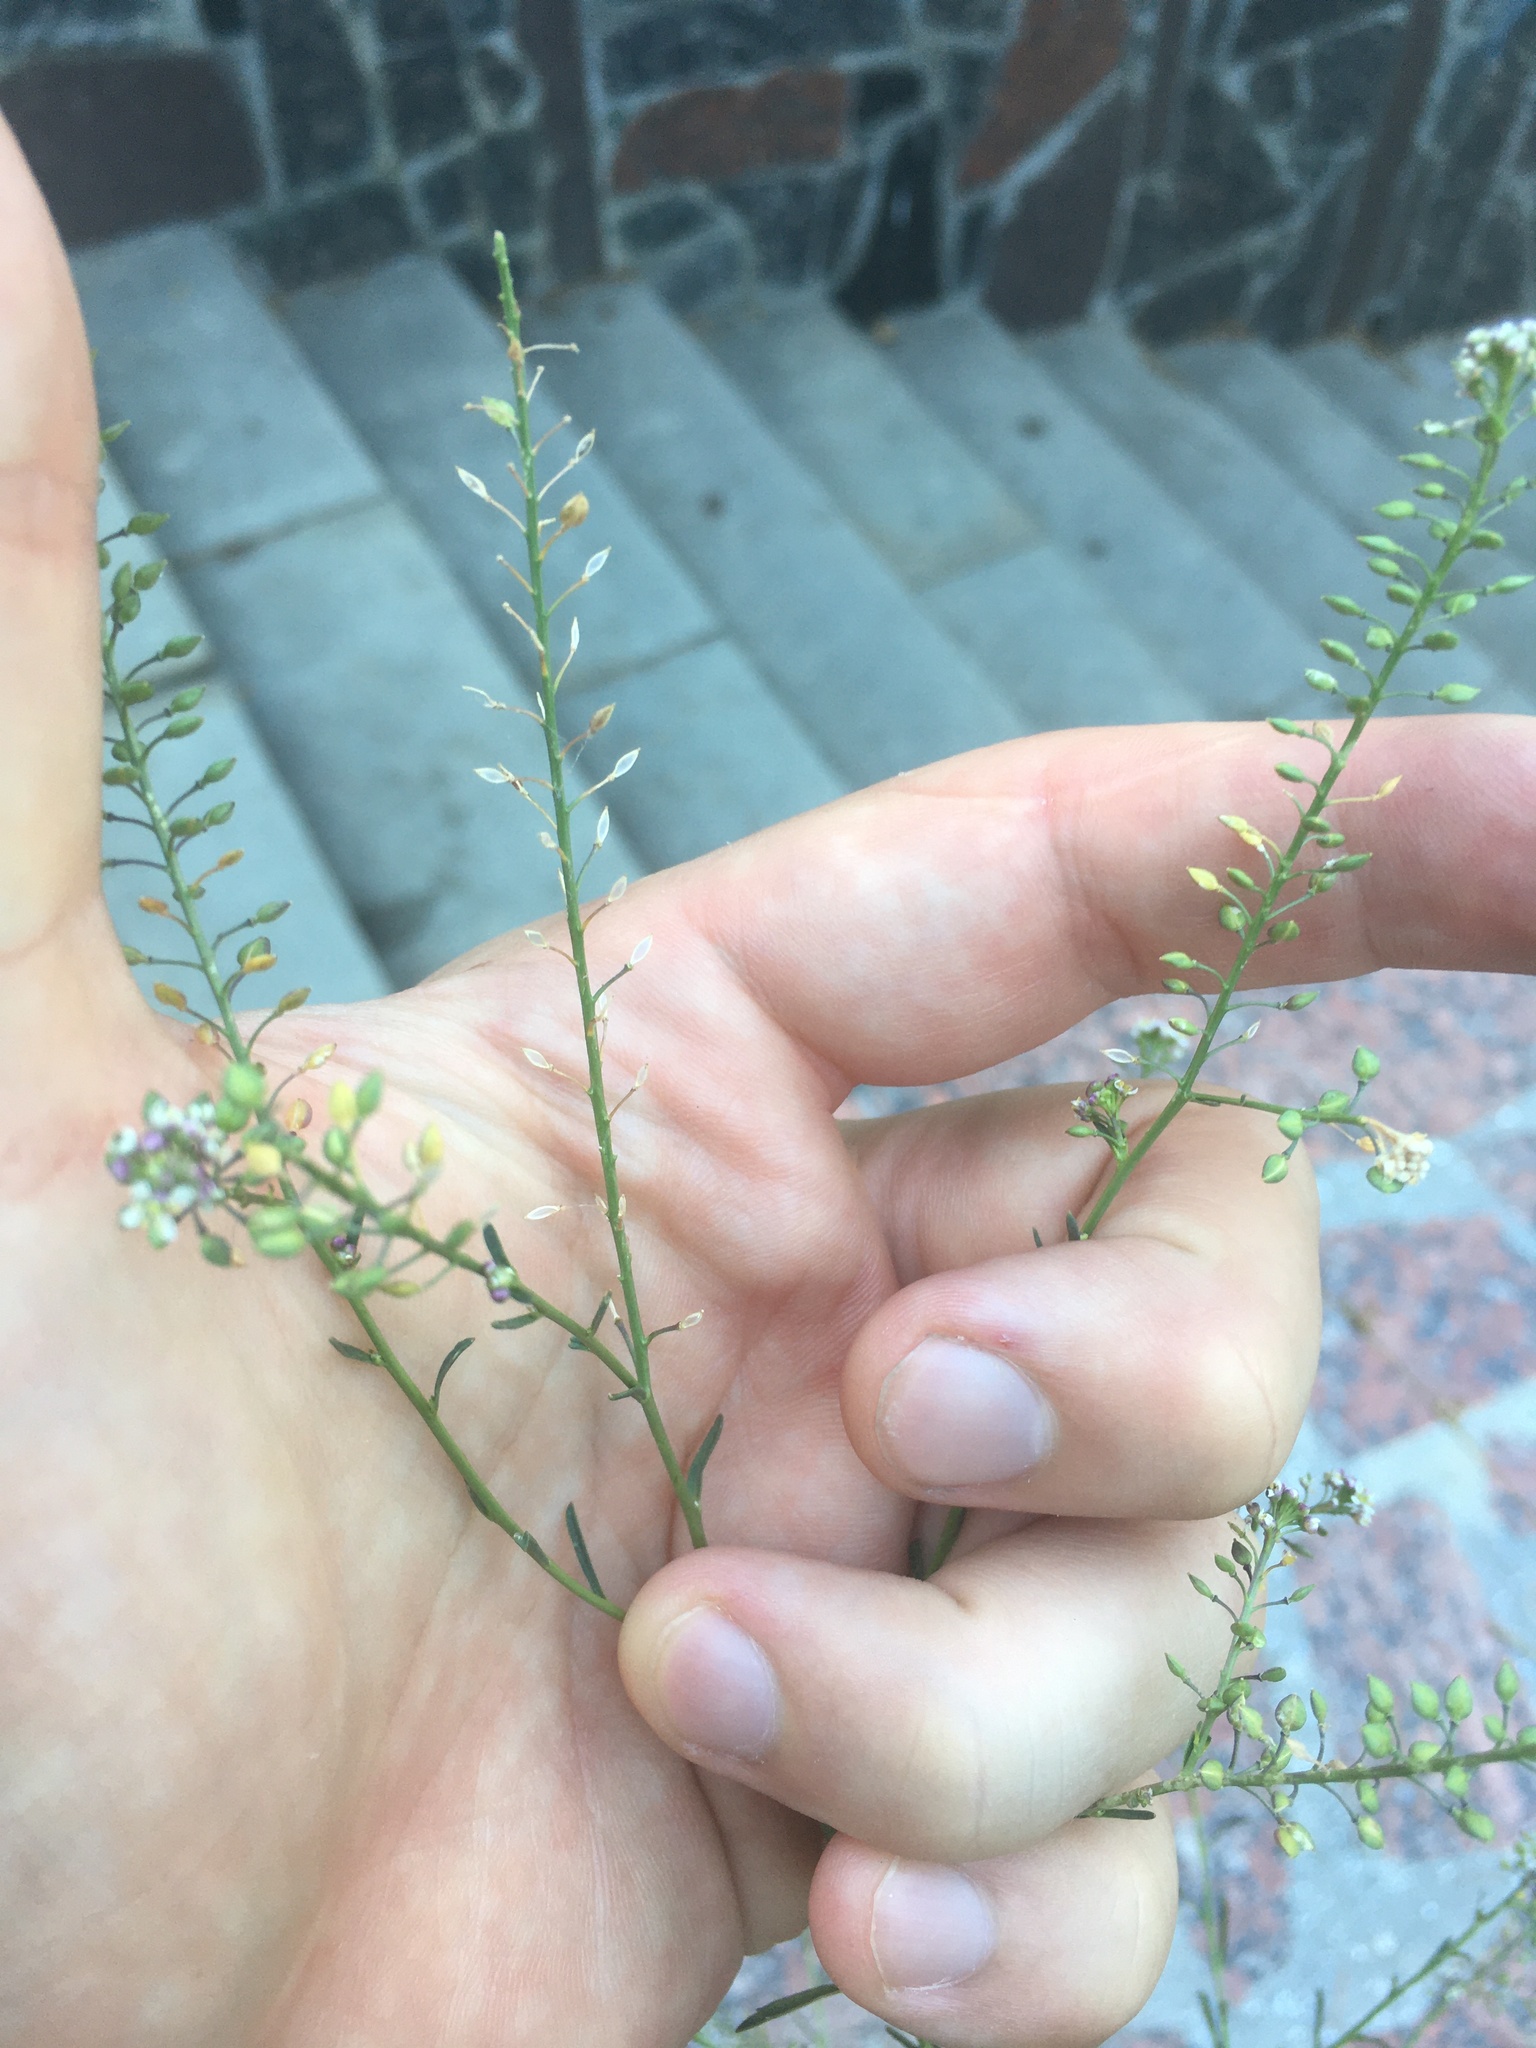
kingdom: Plantae
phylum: Tracheophyta
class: Magnoliopsida
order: Brassicales
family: Brassicaceae
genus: Lepidium
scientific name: Lepidium graminifolium
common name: Tall pepperwort
